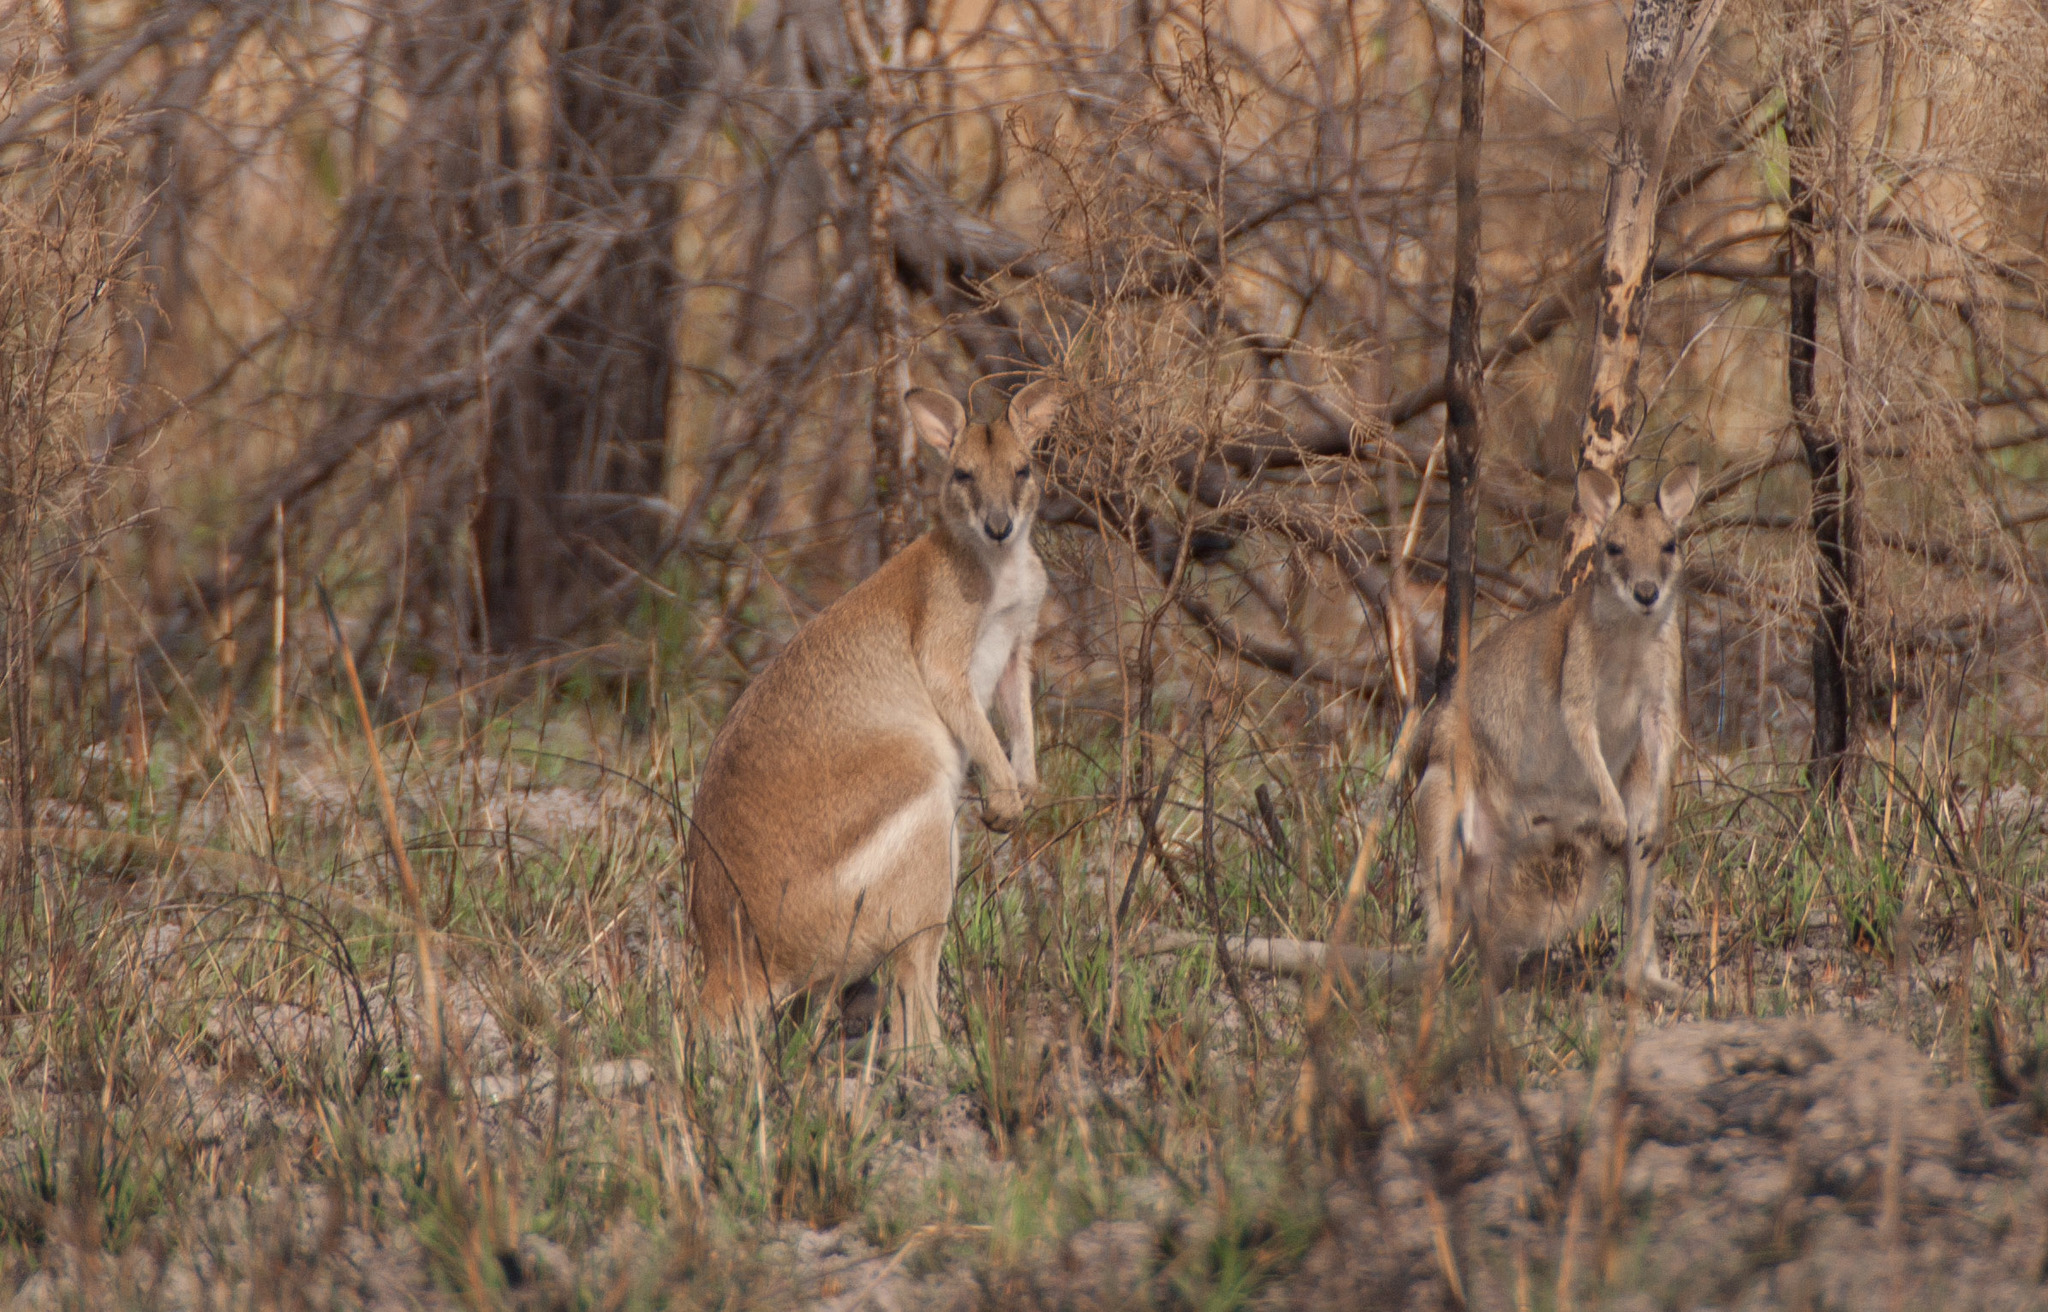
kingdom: Animalia
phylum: Chordata
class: Mammalia
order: Diprotodontia
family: Macropodidae
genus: Macropus
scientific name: Macropus agilis
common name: Agile wallaby
